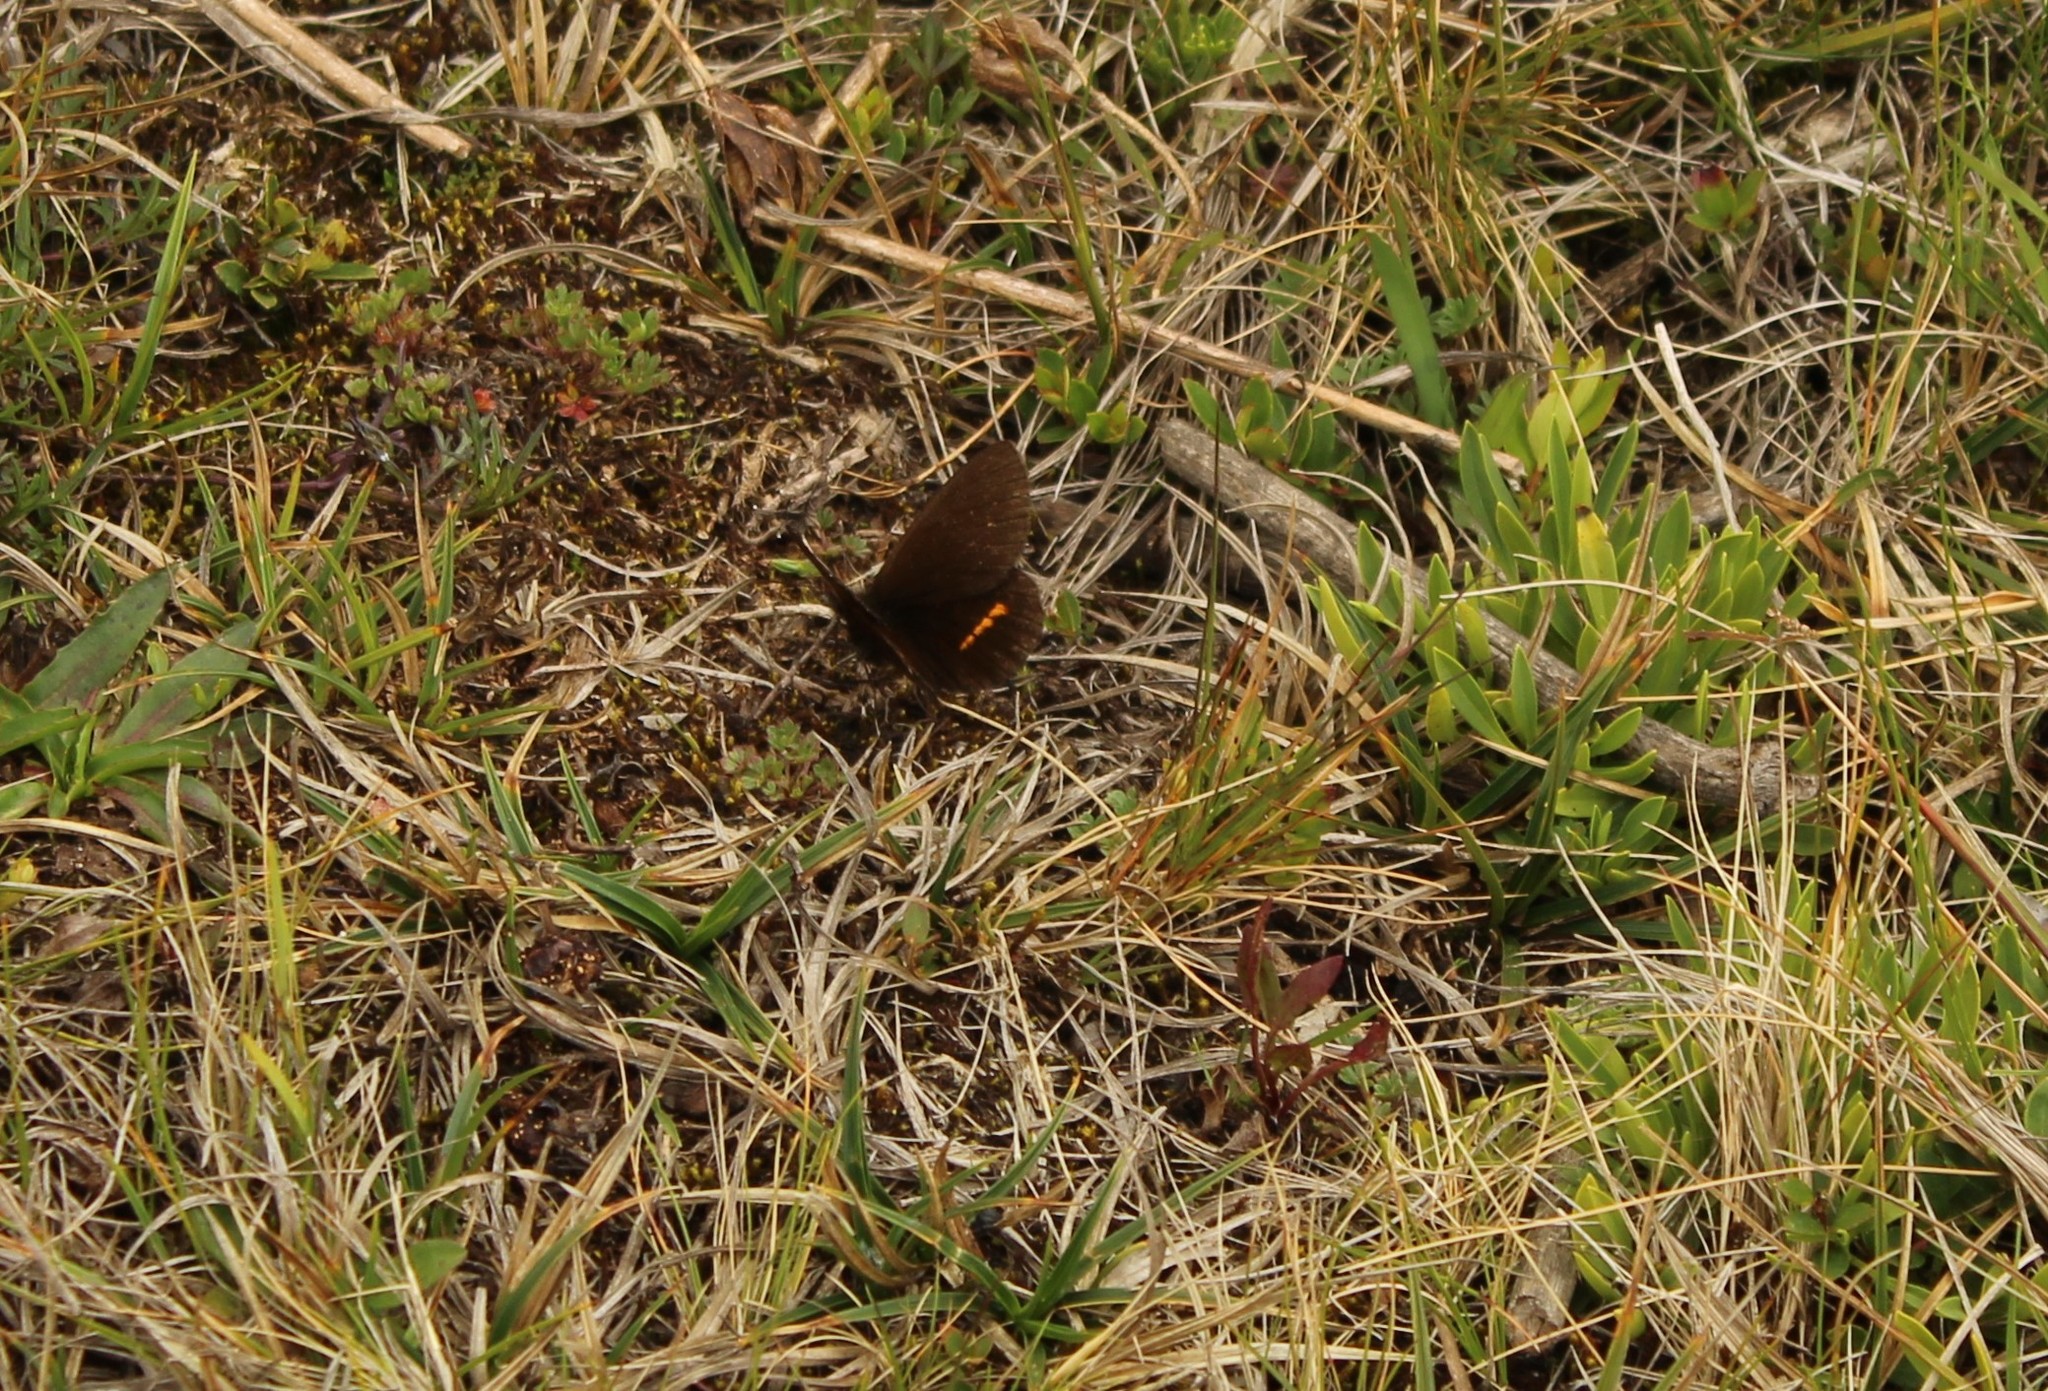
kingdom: Animalia
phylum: Arthropoda
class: Insecta
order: Lepidoptera
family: Nymphalidae
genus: Altopedaliodes
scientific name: Altopedaliodes nebris
